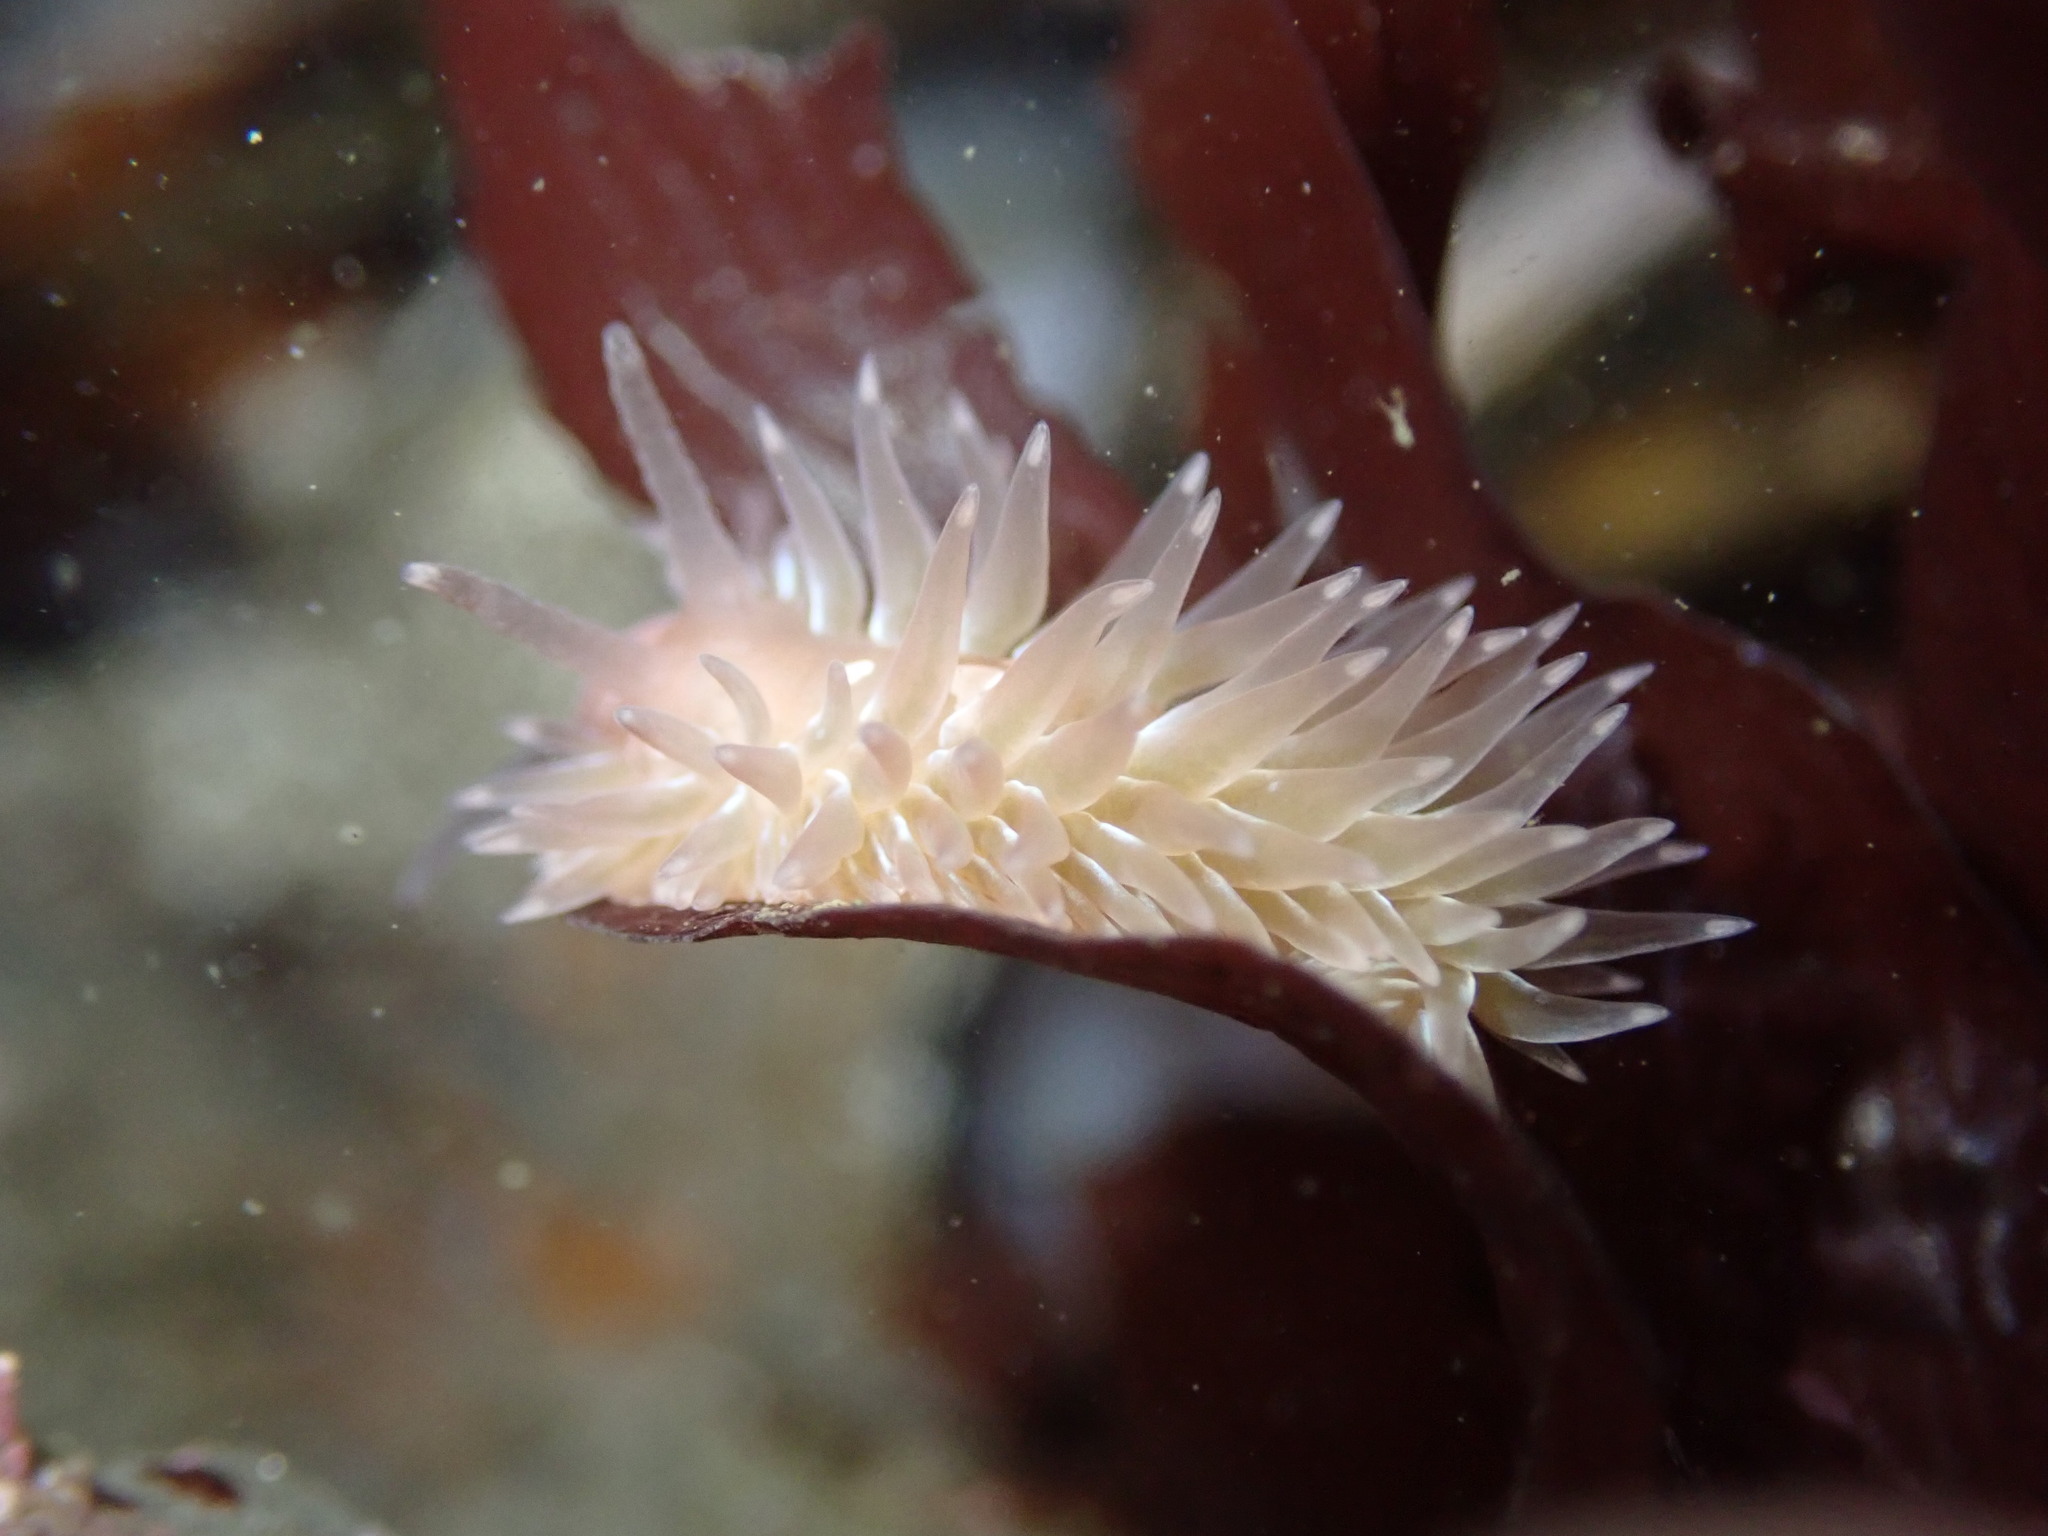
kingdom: Animalia
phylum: Mollusca
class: Gastropoda
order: Nudibranchia
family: Aeolidiidae
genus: Aeolidia
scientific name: Aeolidia loui
